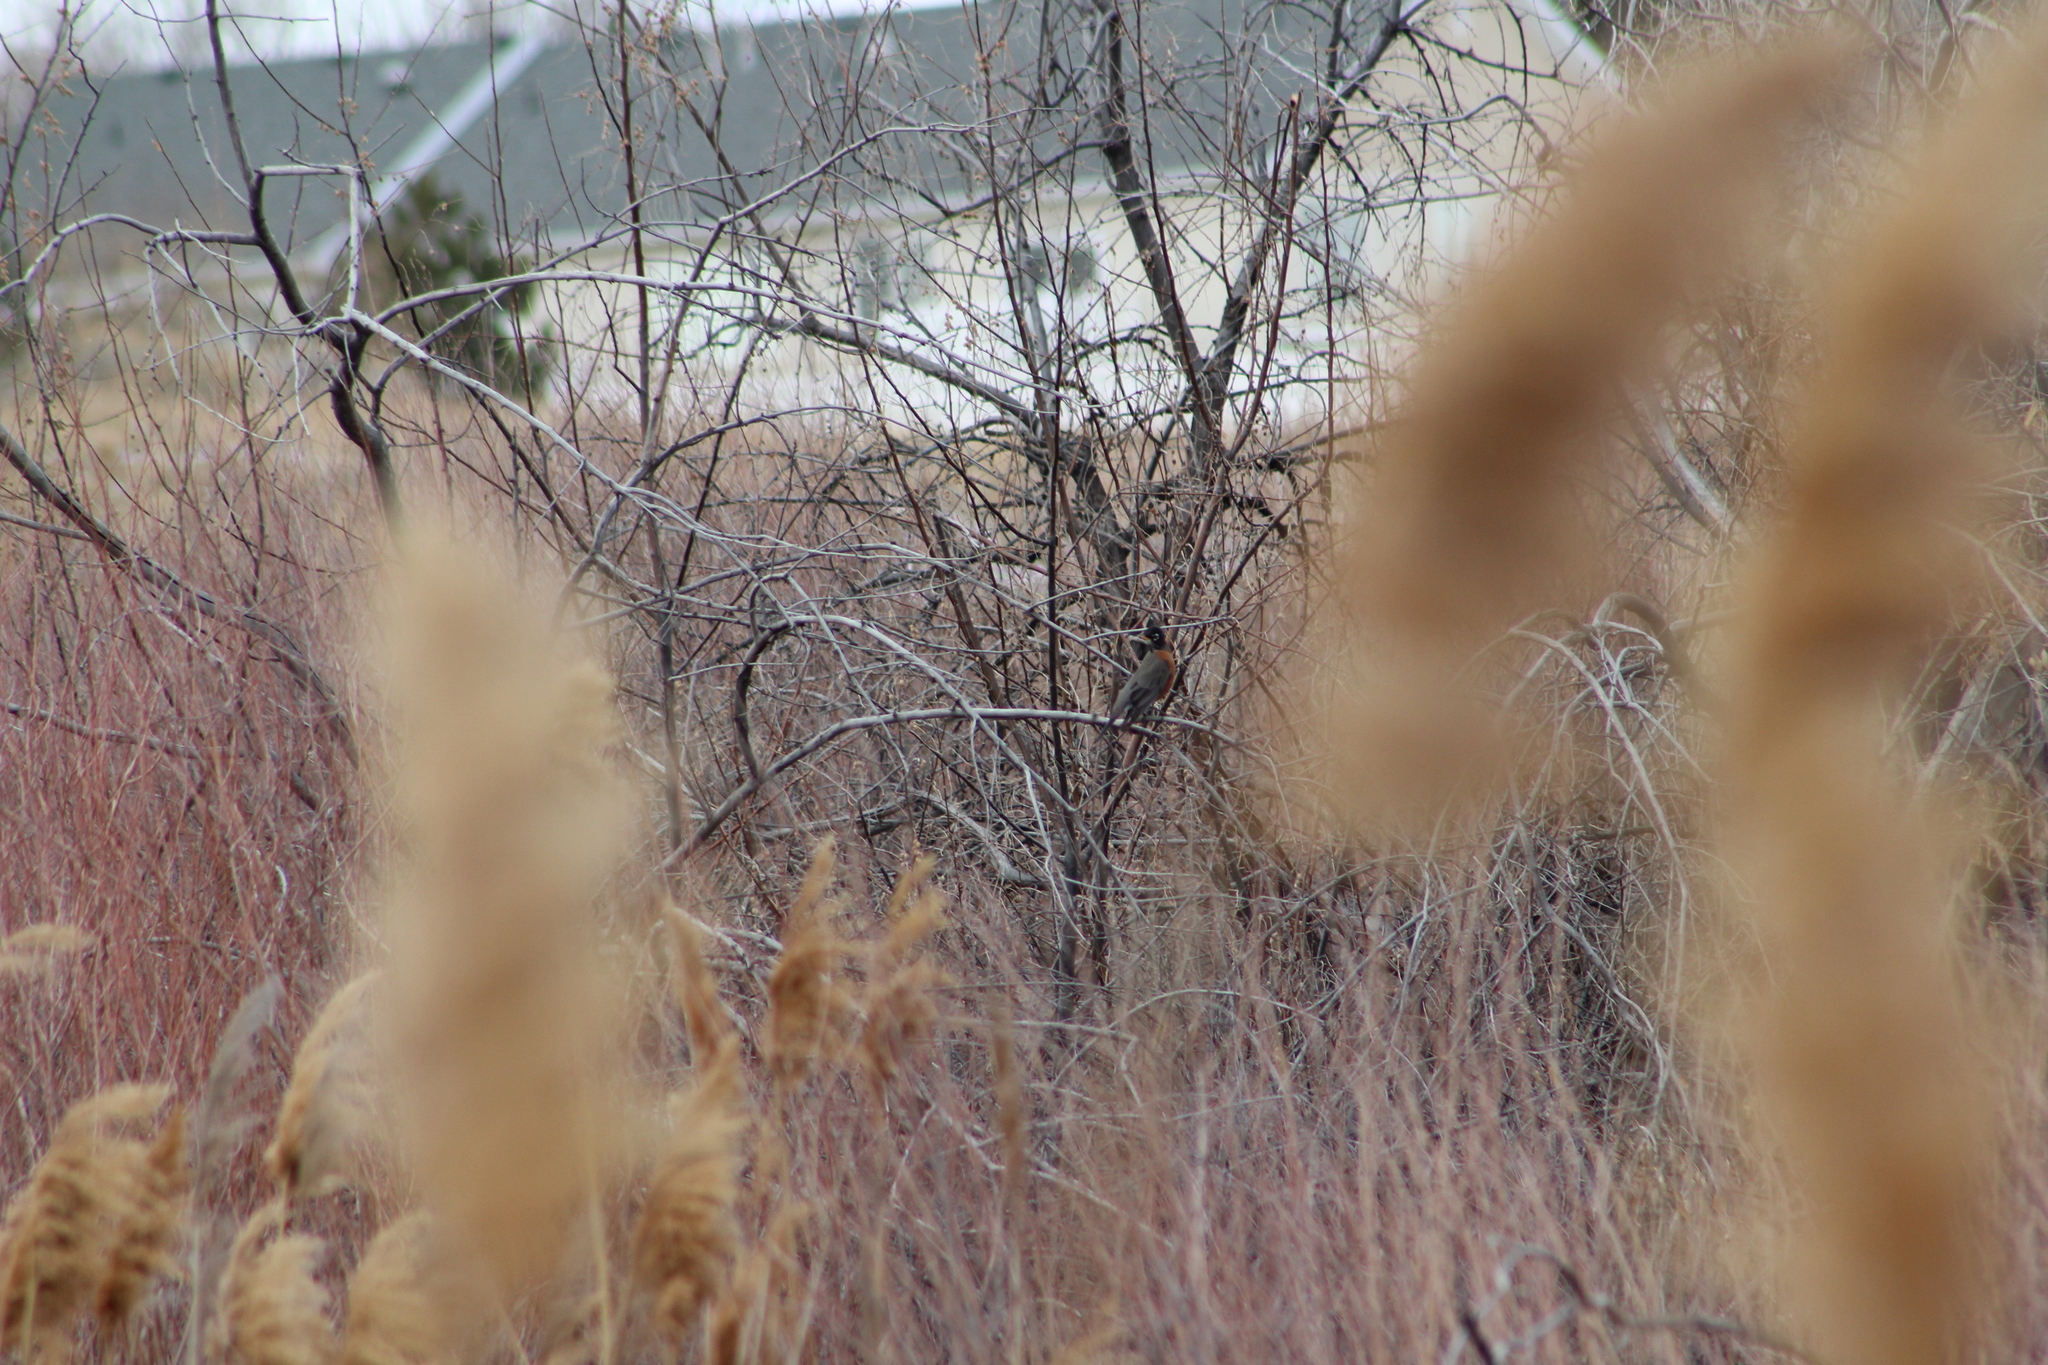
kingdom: Animalia
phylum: Chordata
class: Aves
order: Passeriformes
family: Turdidae
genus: Turdus
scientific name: Turdus migratorius
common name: American robin
